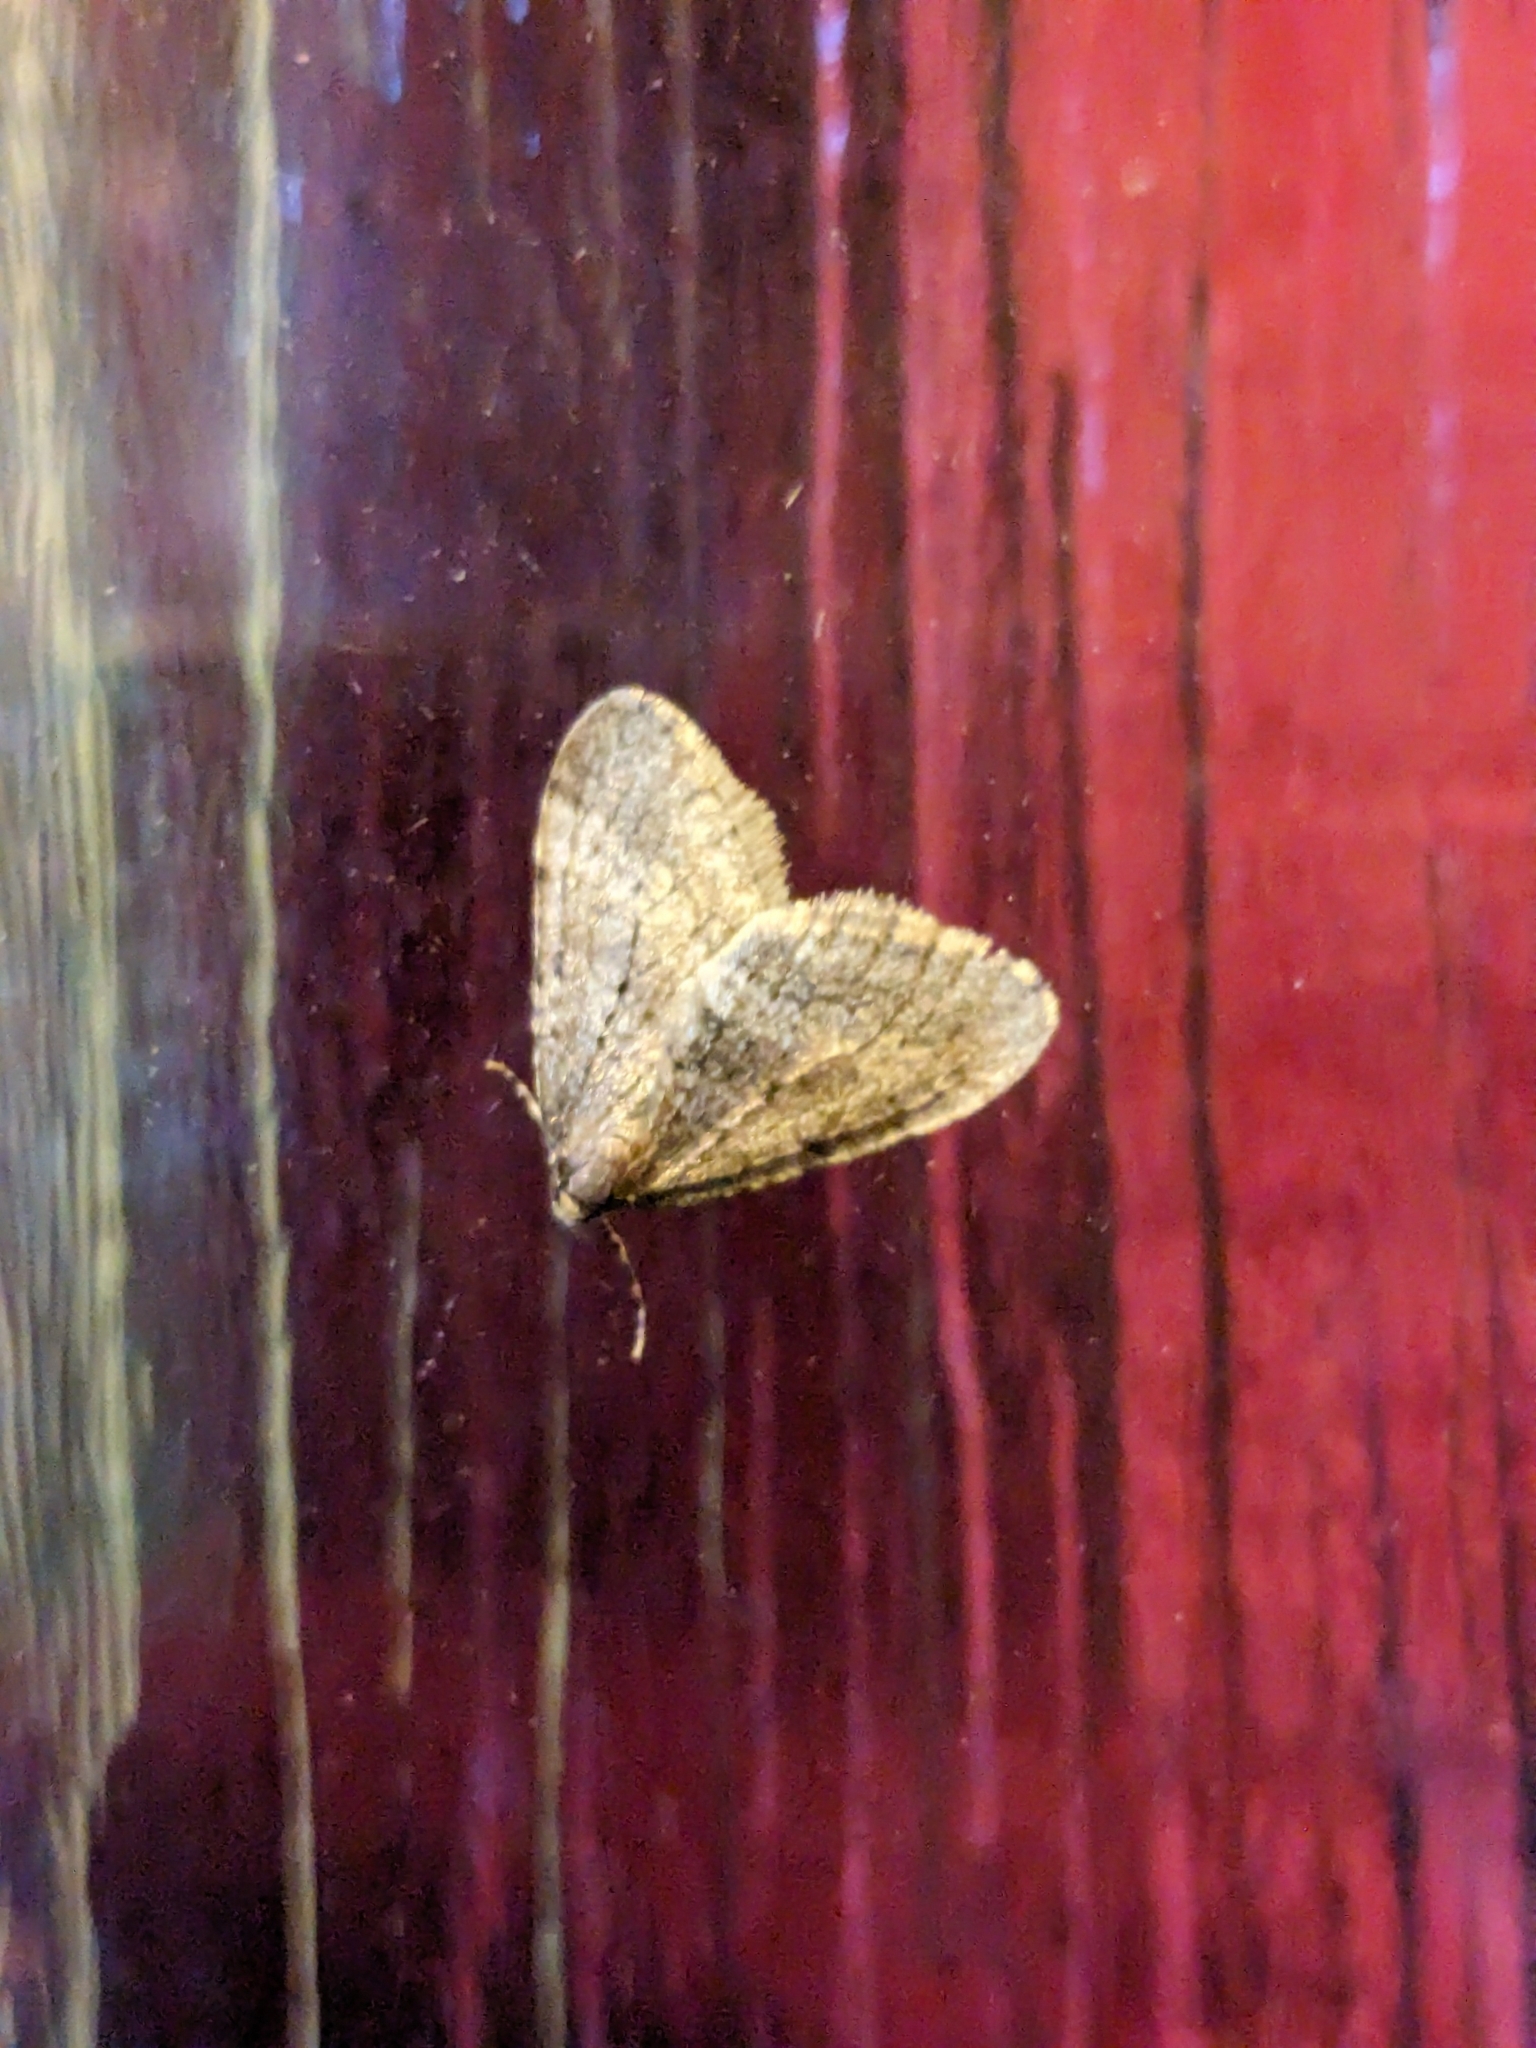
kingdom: Animalia
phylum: Arthropoda
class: Insecta
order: Lepidoptera
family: Geometridae
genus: Operophtera
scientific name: Operophtera brumata
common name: Winter moth
